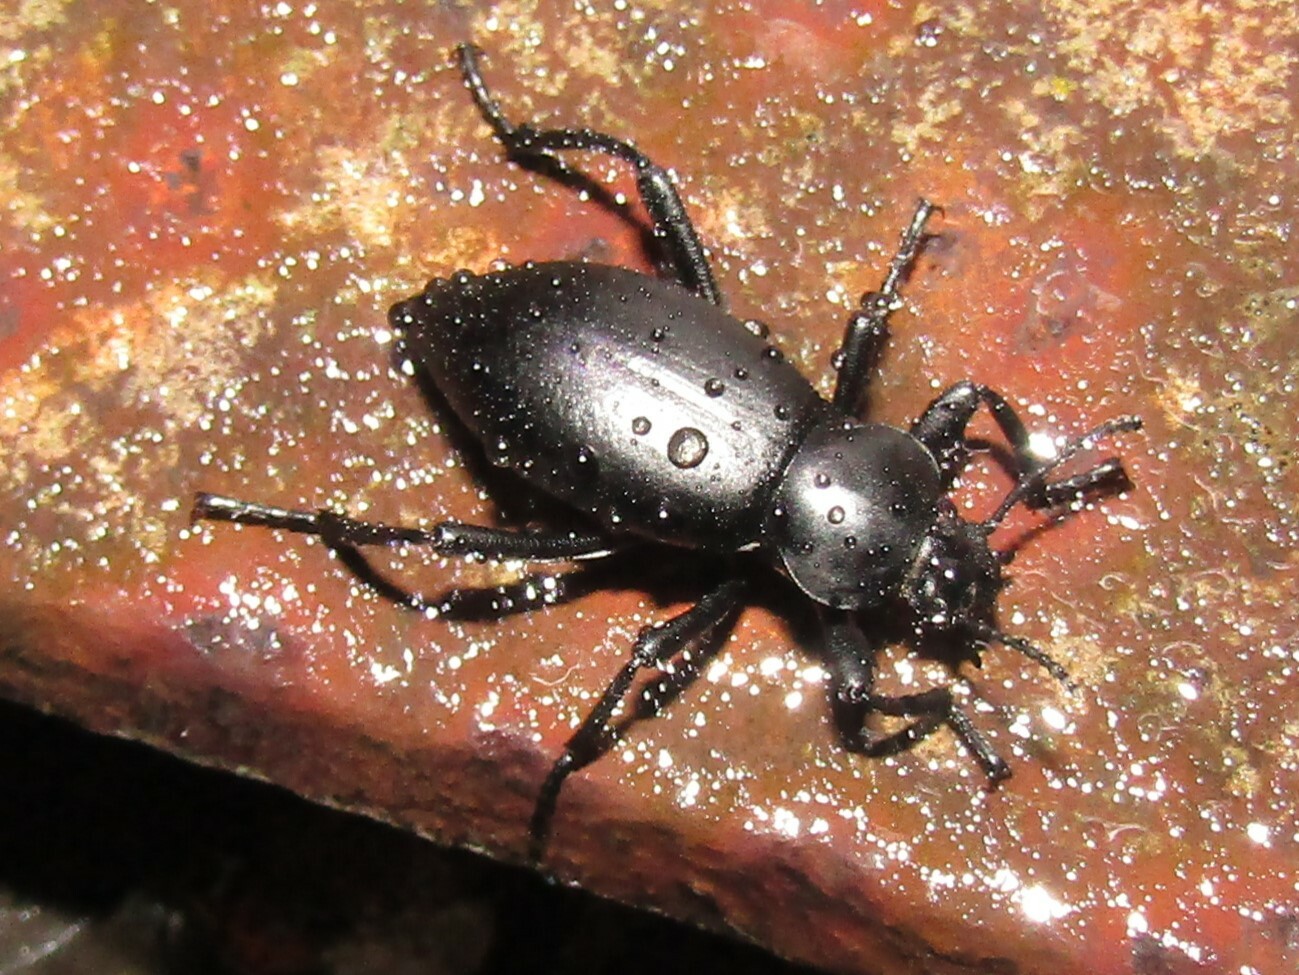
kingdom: Animalia
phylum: Arthropoda
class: Insecta
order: Coleoptera
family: Tenebrionidae
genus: Eleodes
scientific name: Eleodes dentipes
